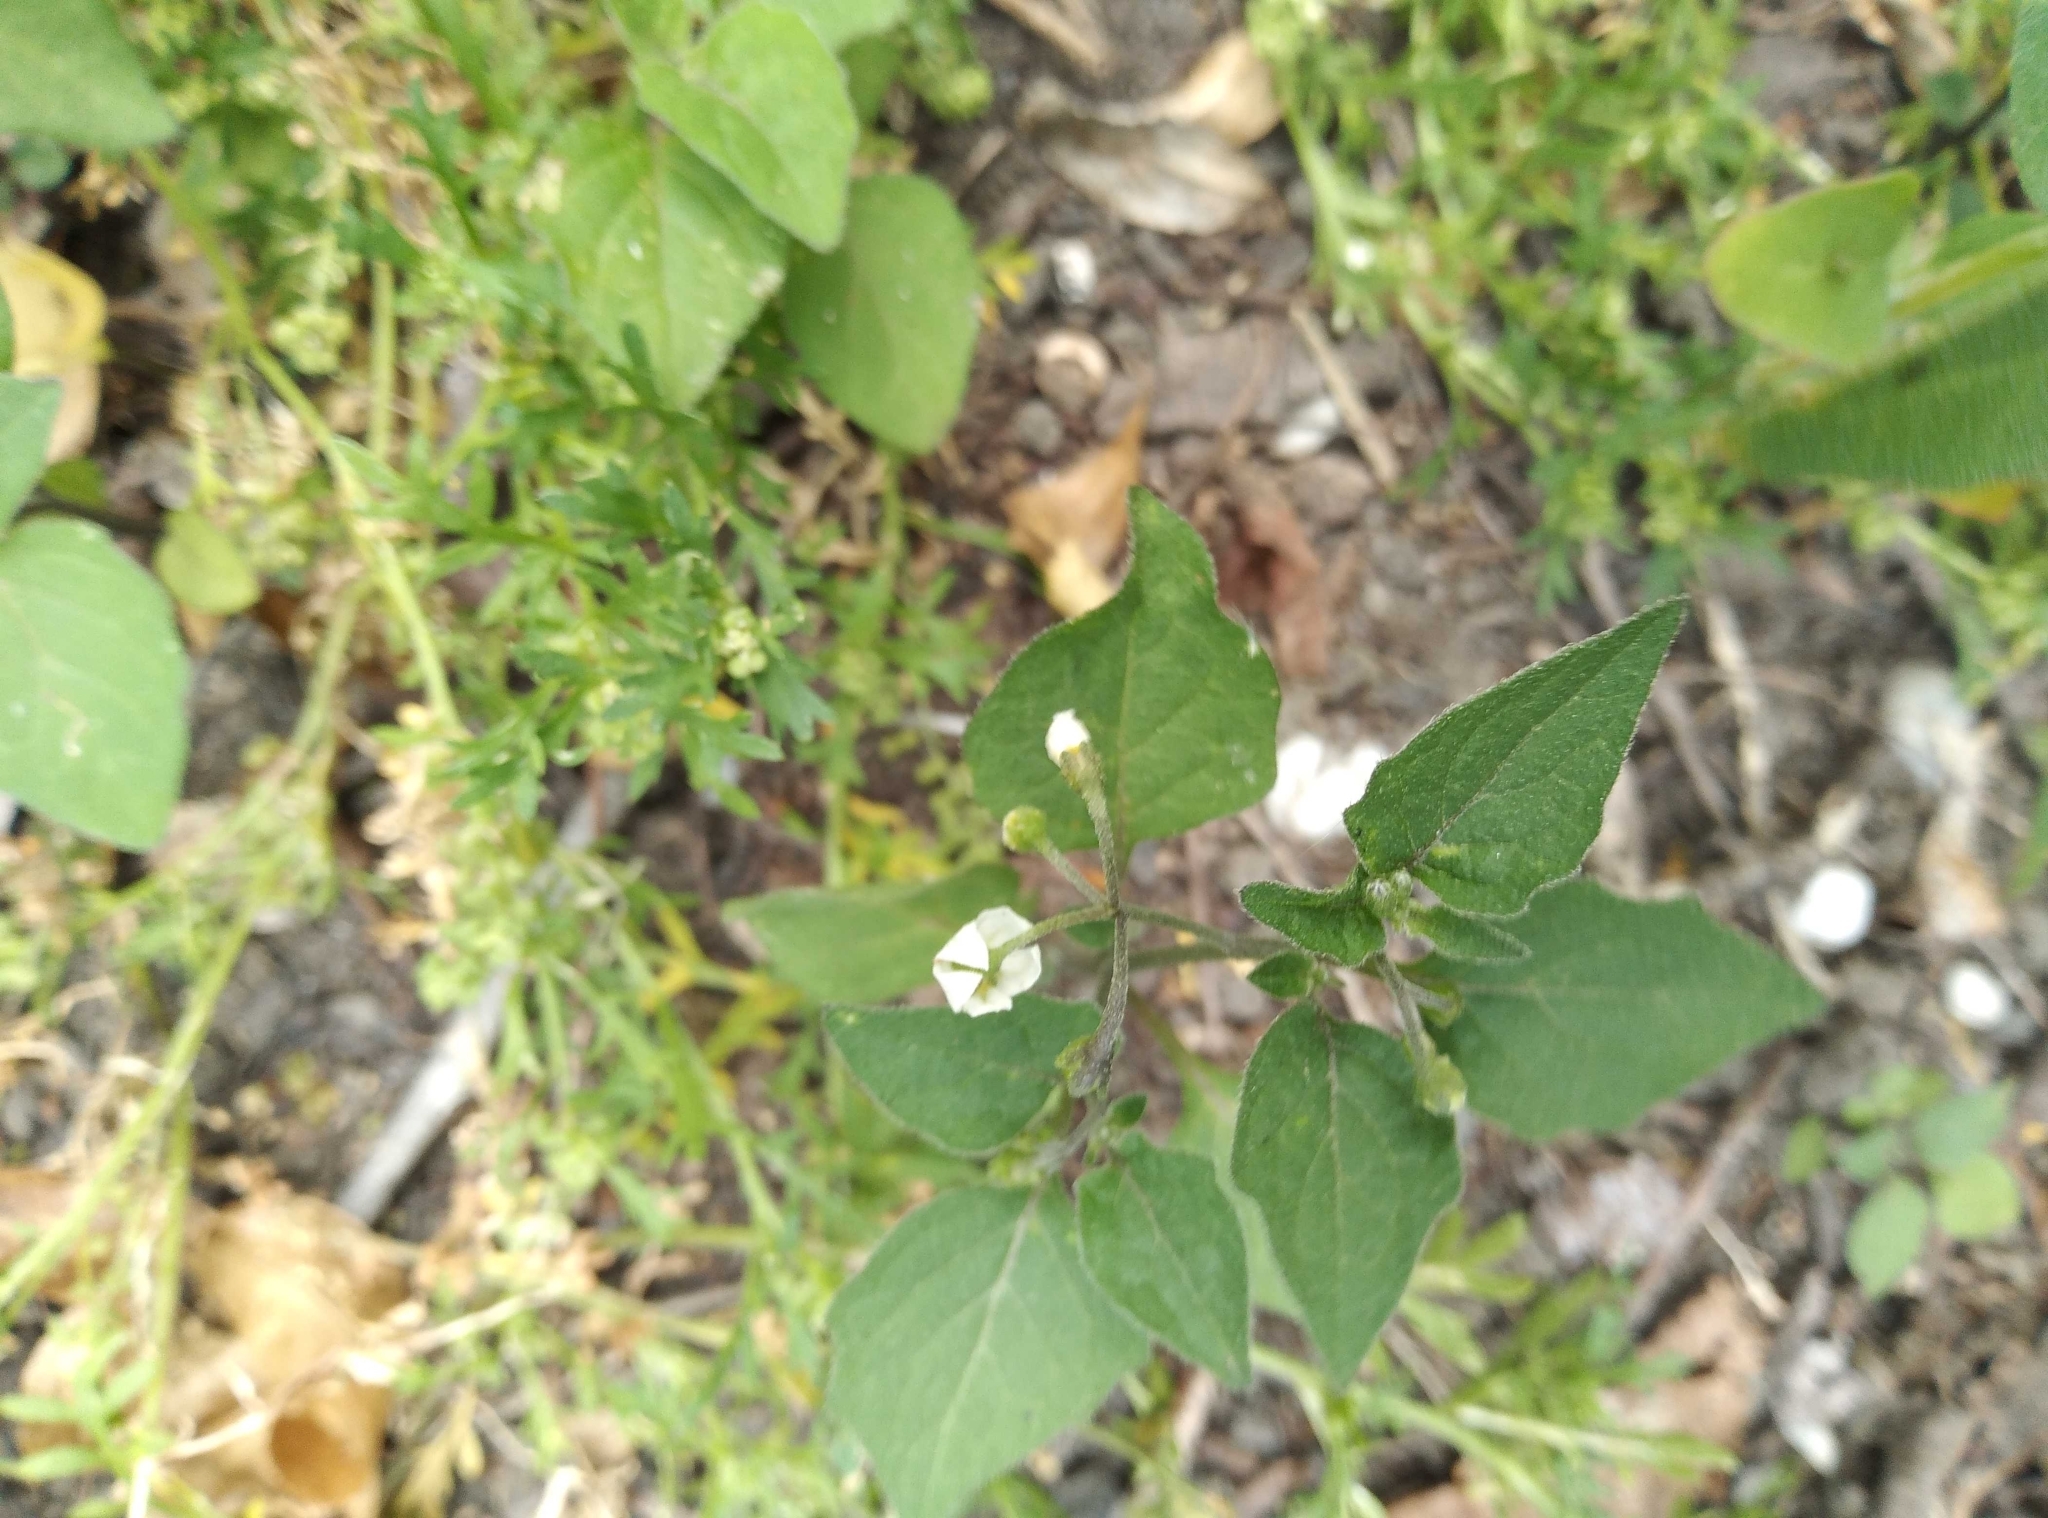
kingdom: Plantae
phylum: Tracheophyta
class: Magnoliopsida
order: Solanales
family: Solanaceae
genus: Solanum
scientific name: Solanum nigrum
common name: Black nightshade
